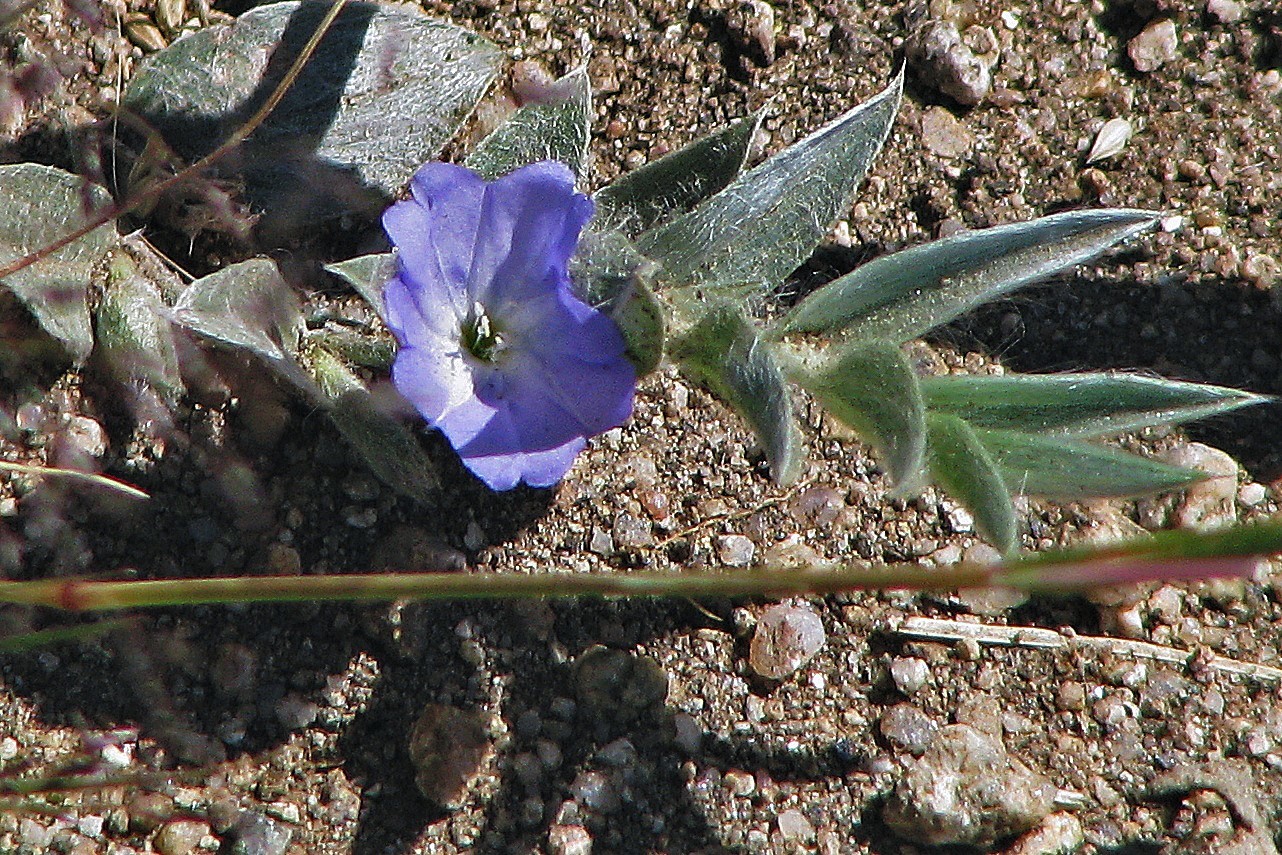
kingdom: Plantae
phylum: Tracheophyta
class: Magnoliopsida
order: Solanales
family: Convolvulaceae
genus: Evolvulus
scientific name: Evolvulus sericeus
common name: Blue dots
